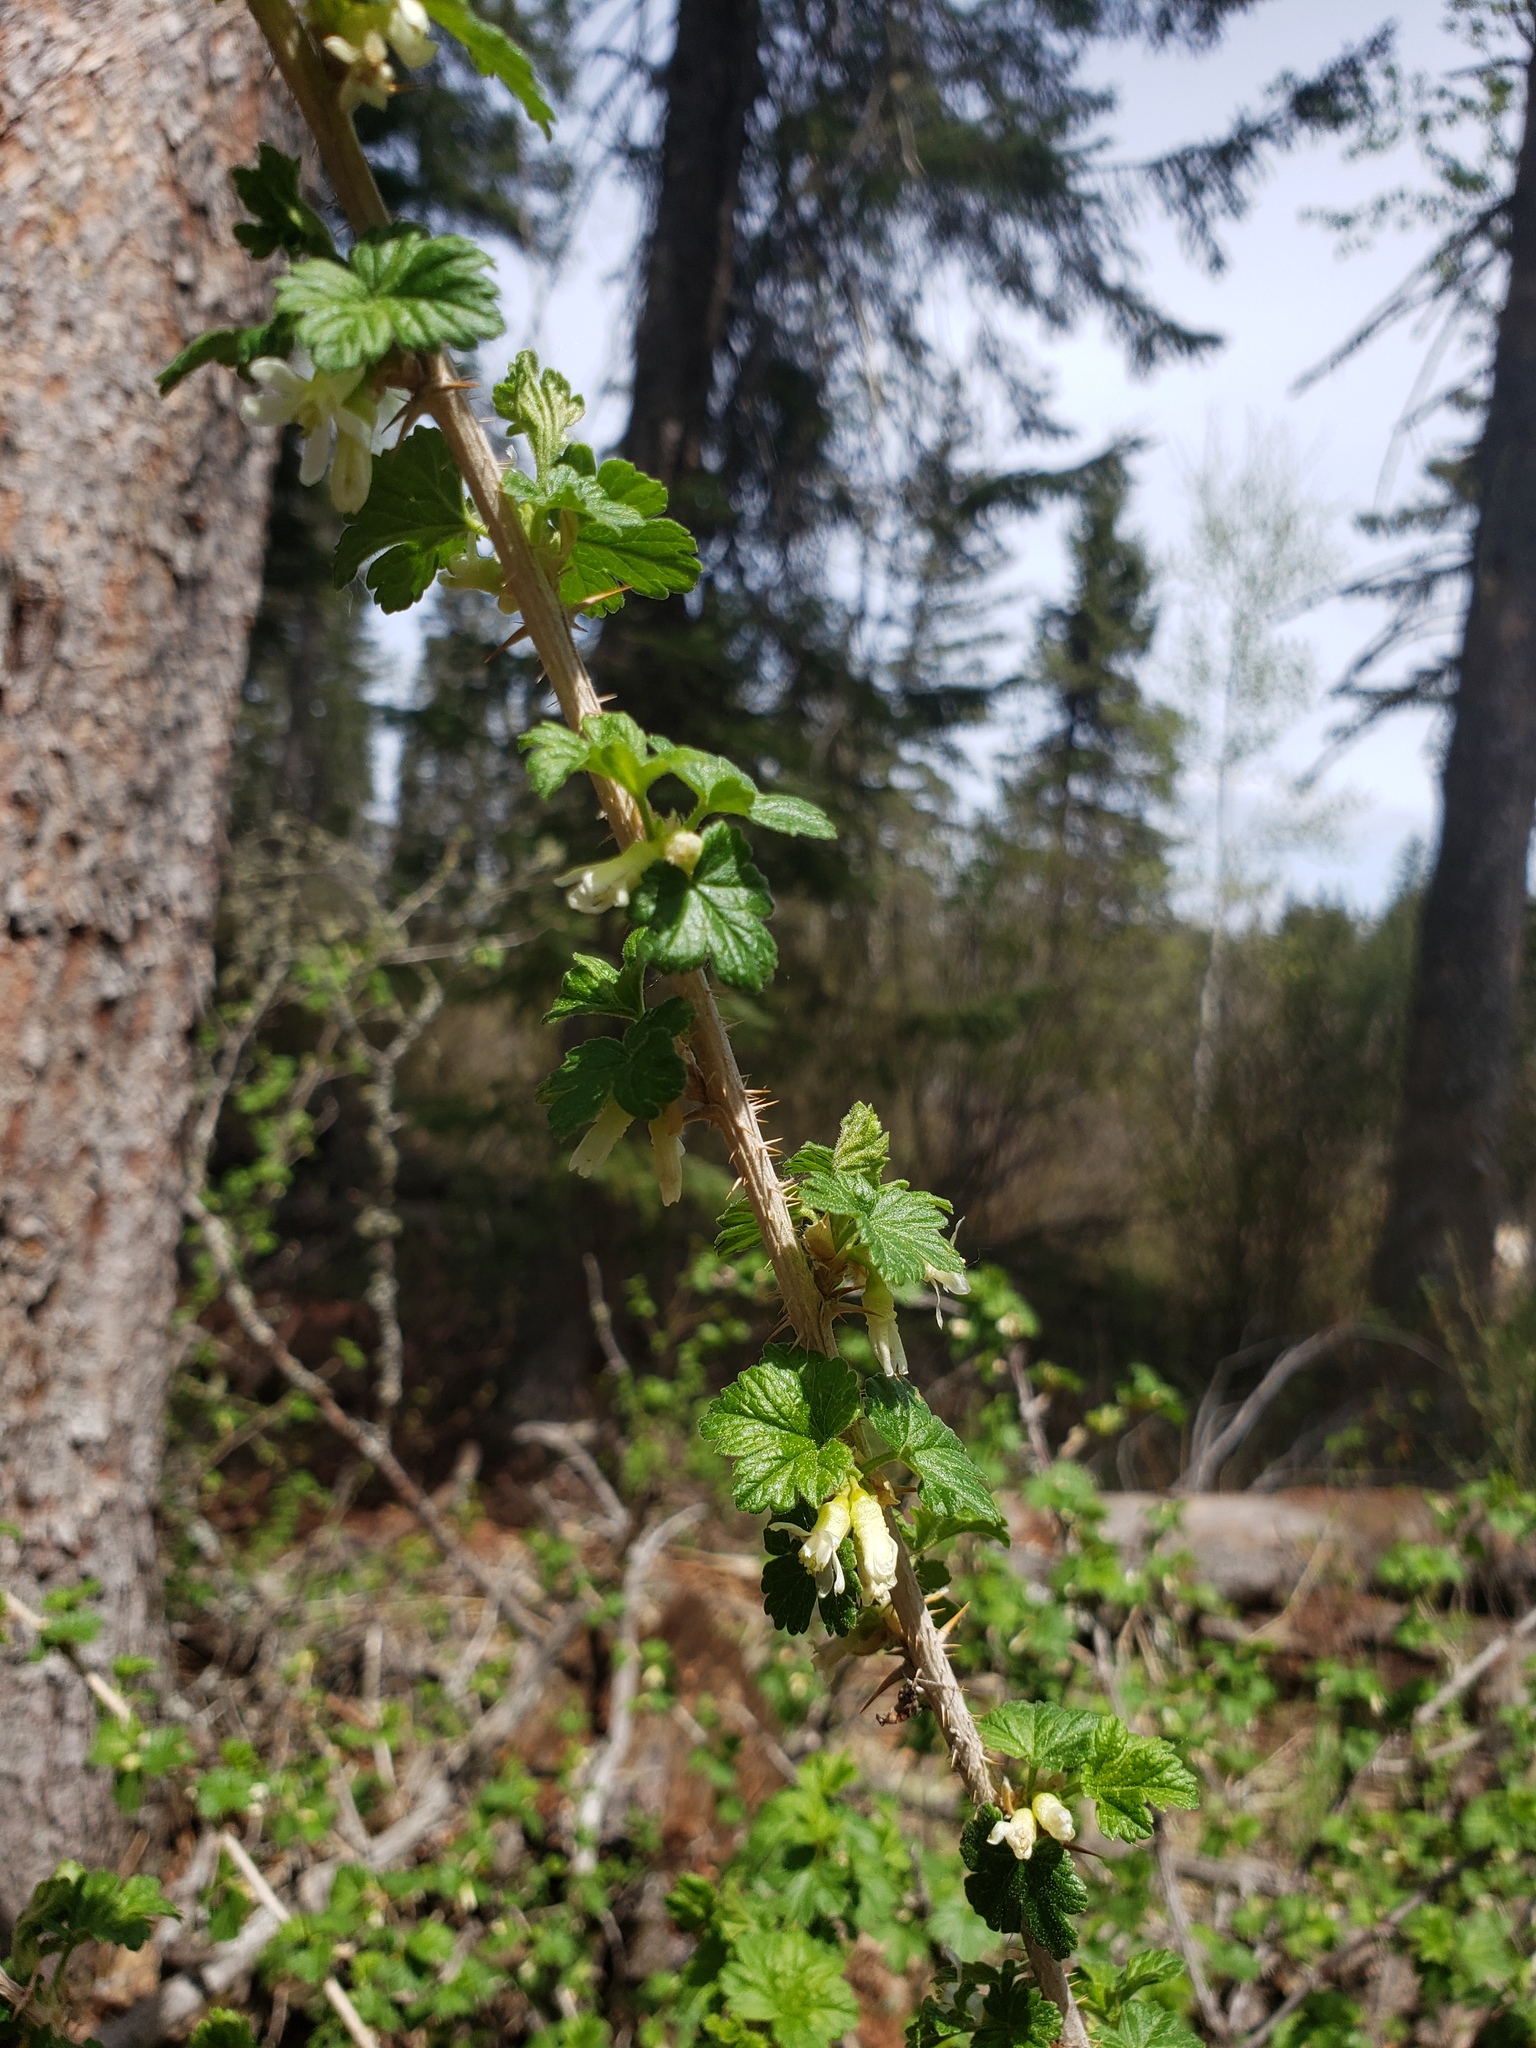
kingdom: Plantae
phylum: Tracheophyta
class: Magnoliopsida
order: Saxifragales
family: Grossulariaceae
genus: Ribes
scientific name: Ribes oxyacanthoides
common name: Northern gooseberry
